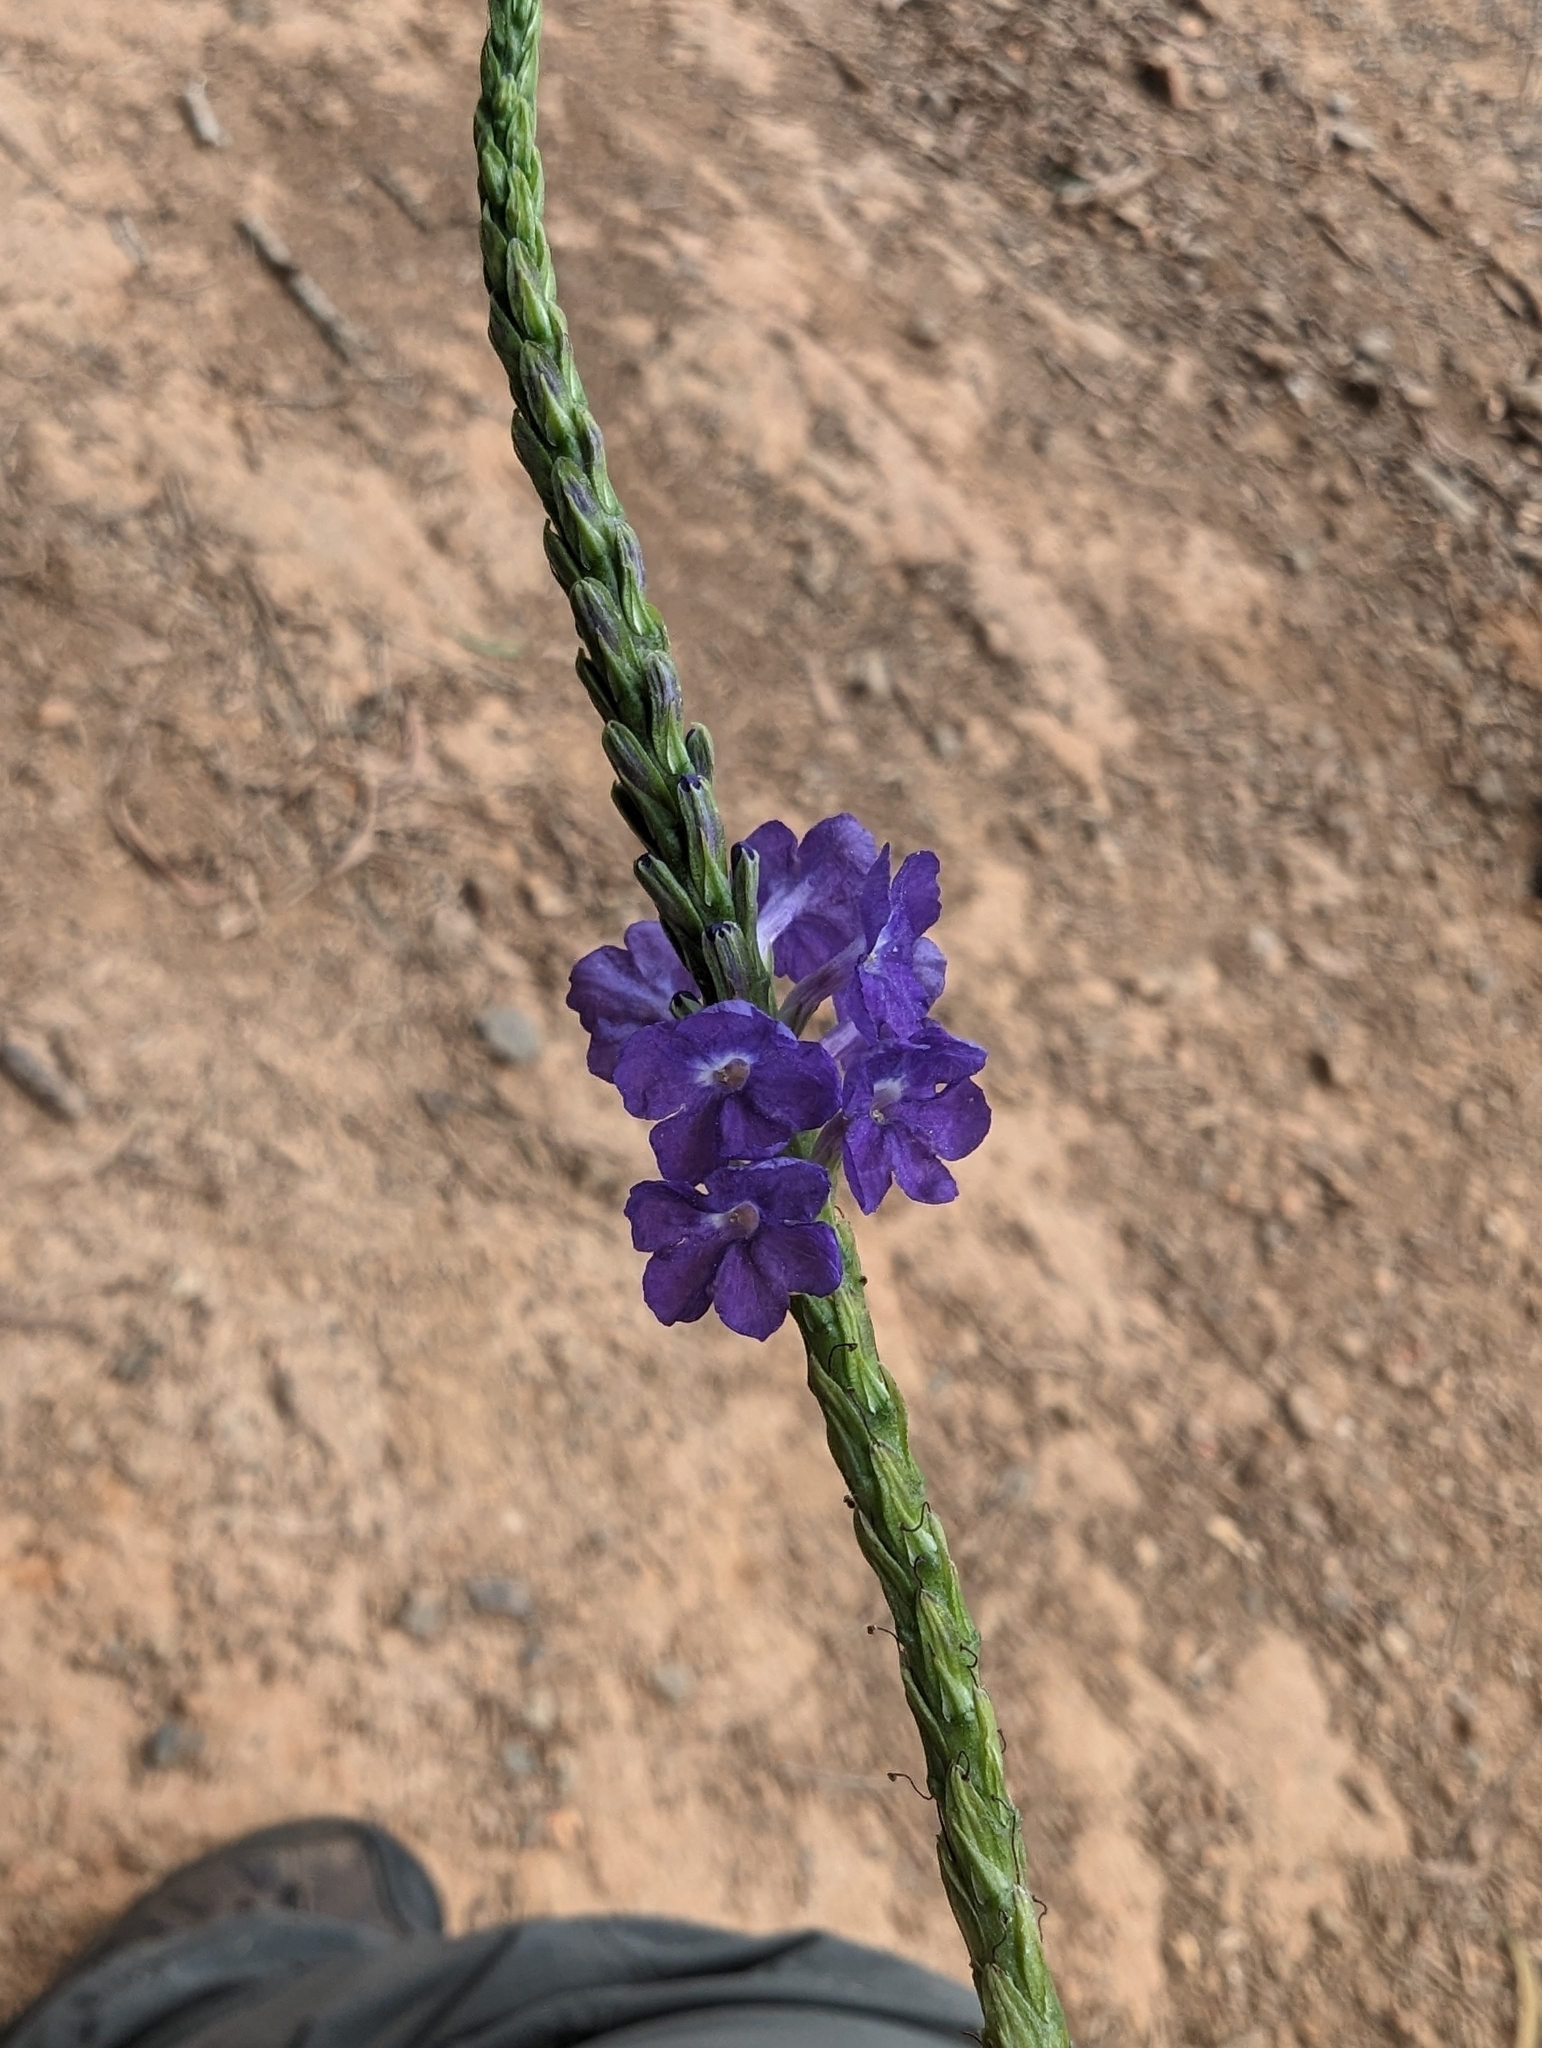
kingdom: Plantae
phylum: Tracheophyta
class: Magnoliopsida
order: Lamiales
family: Verbenaceae
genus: Stachytarpheta
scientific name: Stachytarpheta jamaicensis
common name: Light-blue snakeweed
